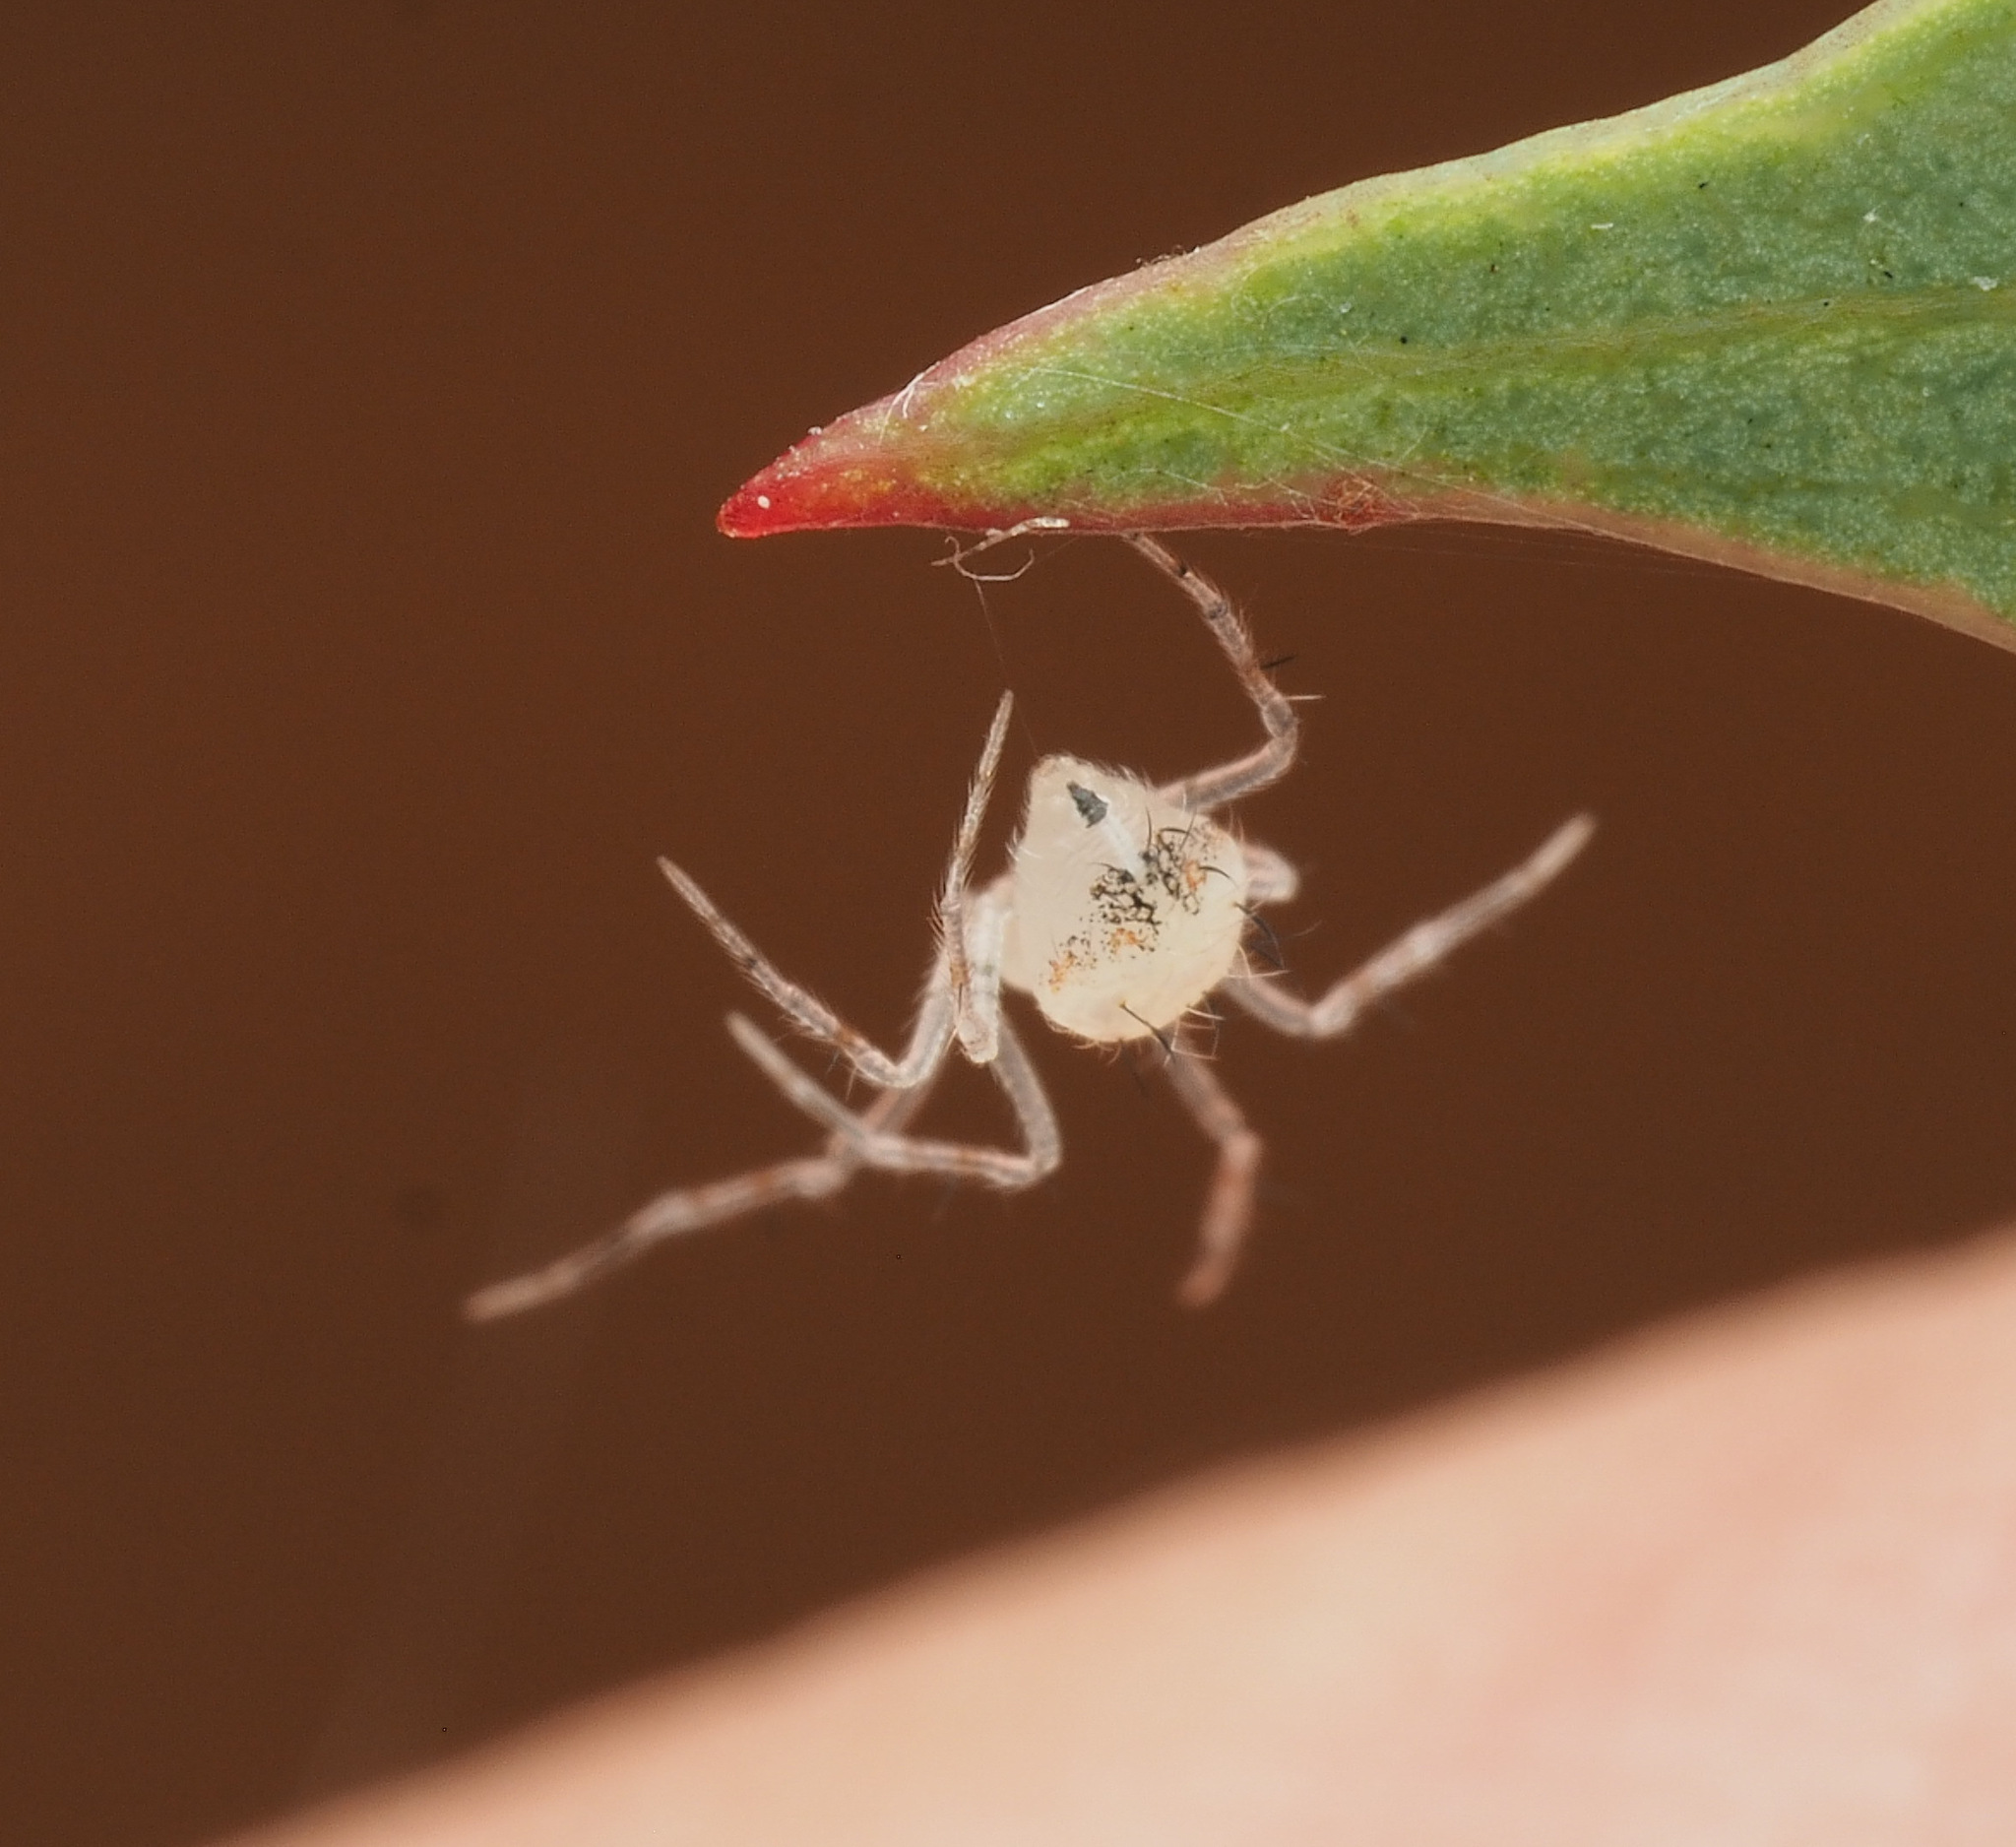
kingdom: Animalia
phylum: Arthropoda
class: Arachnida
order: Araneae
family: Theridiidae
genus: Chrysso
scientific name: Chrysso
